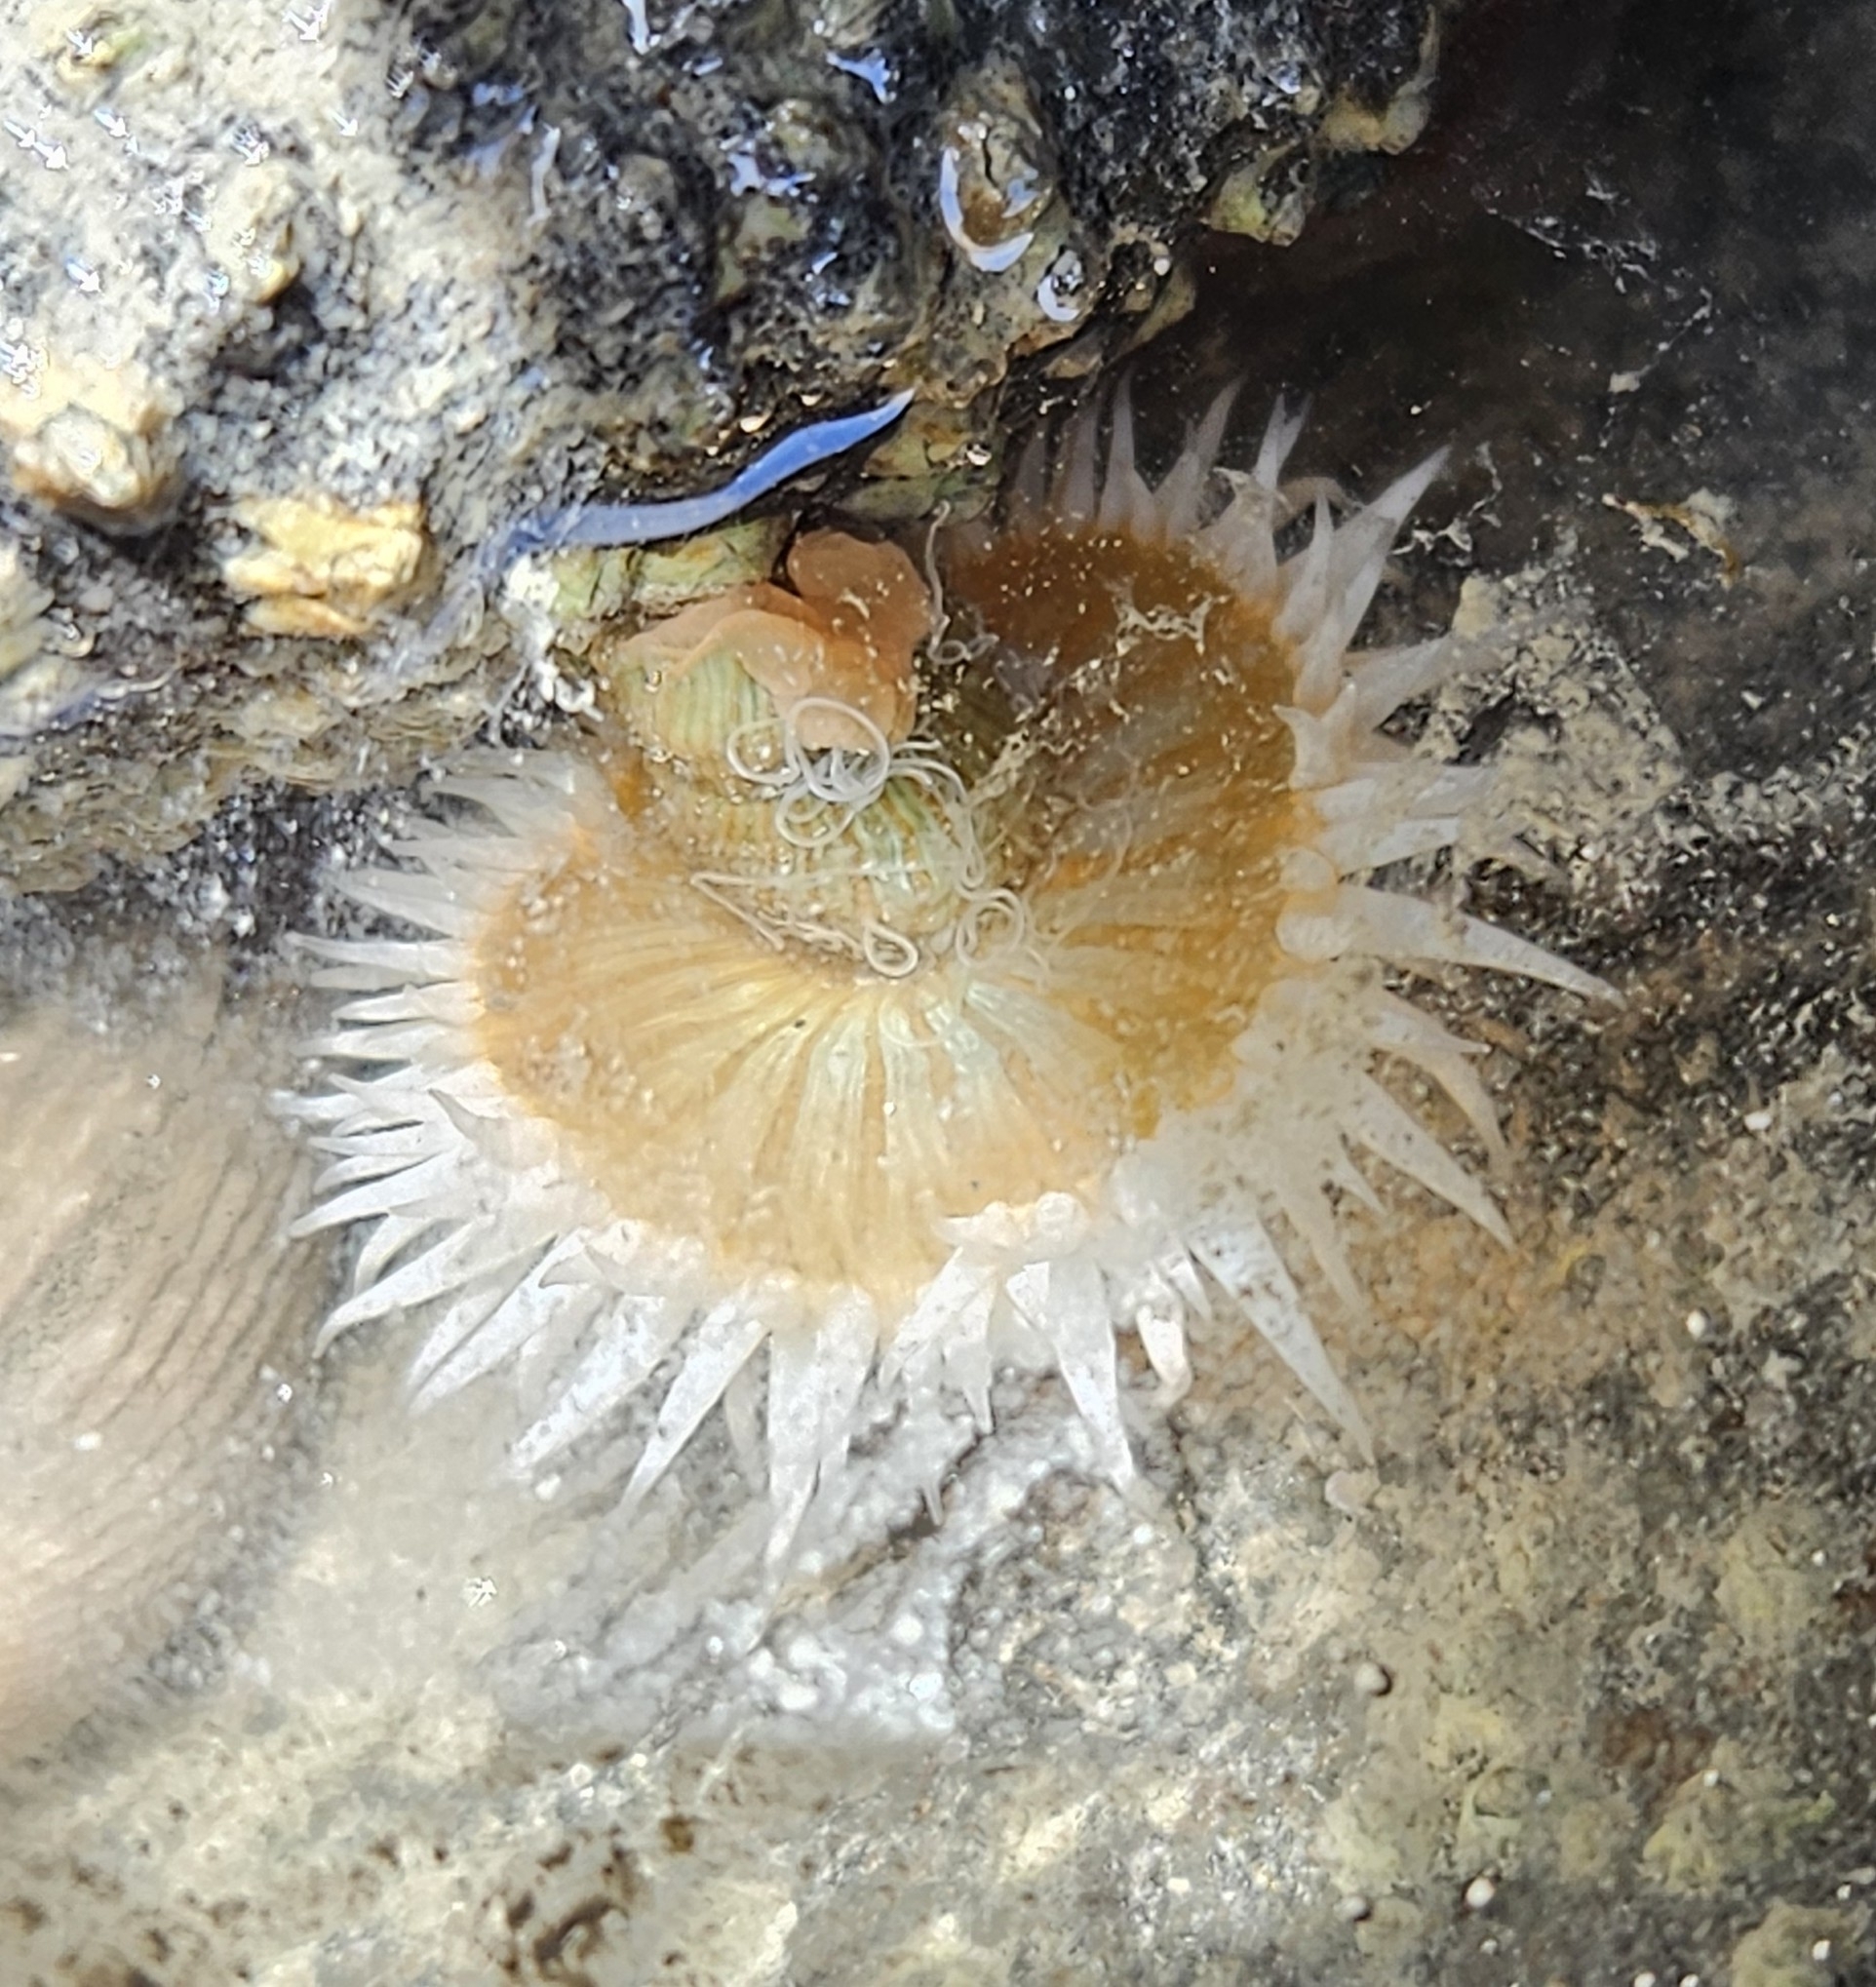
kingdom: Animalia
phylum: Cnidaria
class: Anthozoa
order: Actiniaria
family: Actiniidae
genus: Oulactis
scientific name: Oulactis magna
